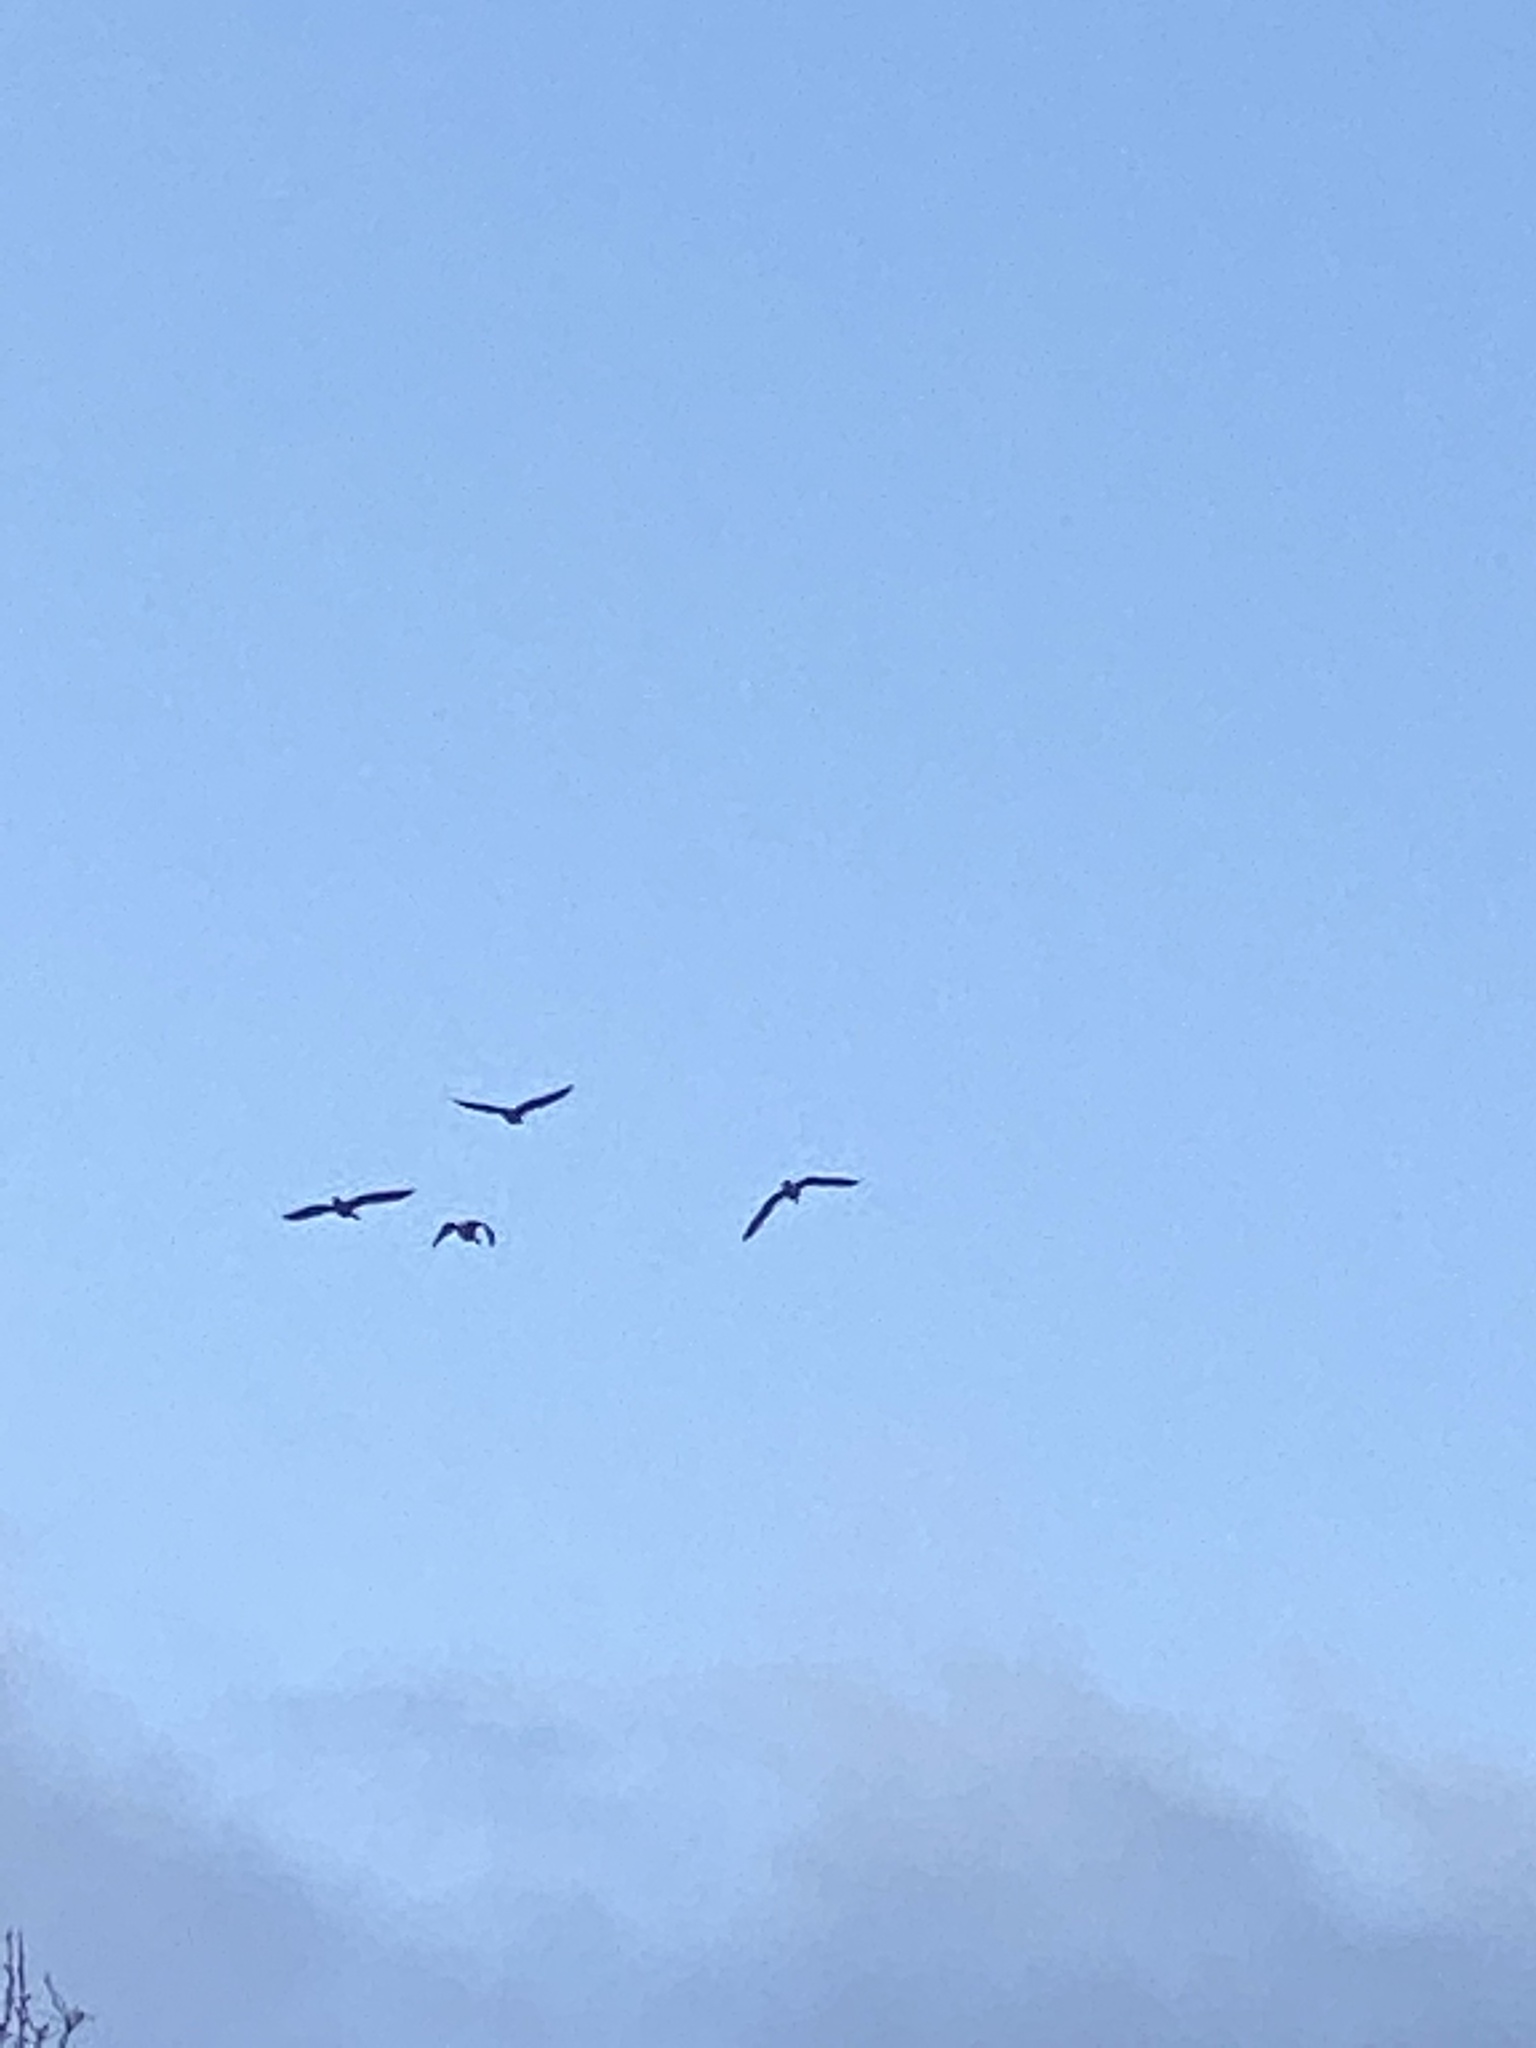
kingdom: Animalia
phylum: Chordata
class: Aves
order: Anseriformes
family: Anatidae
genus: Branta
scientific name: Branta canadensis
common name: Canada goose
